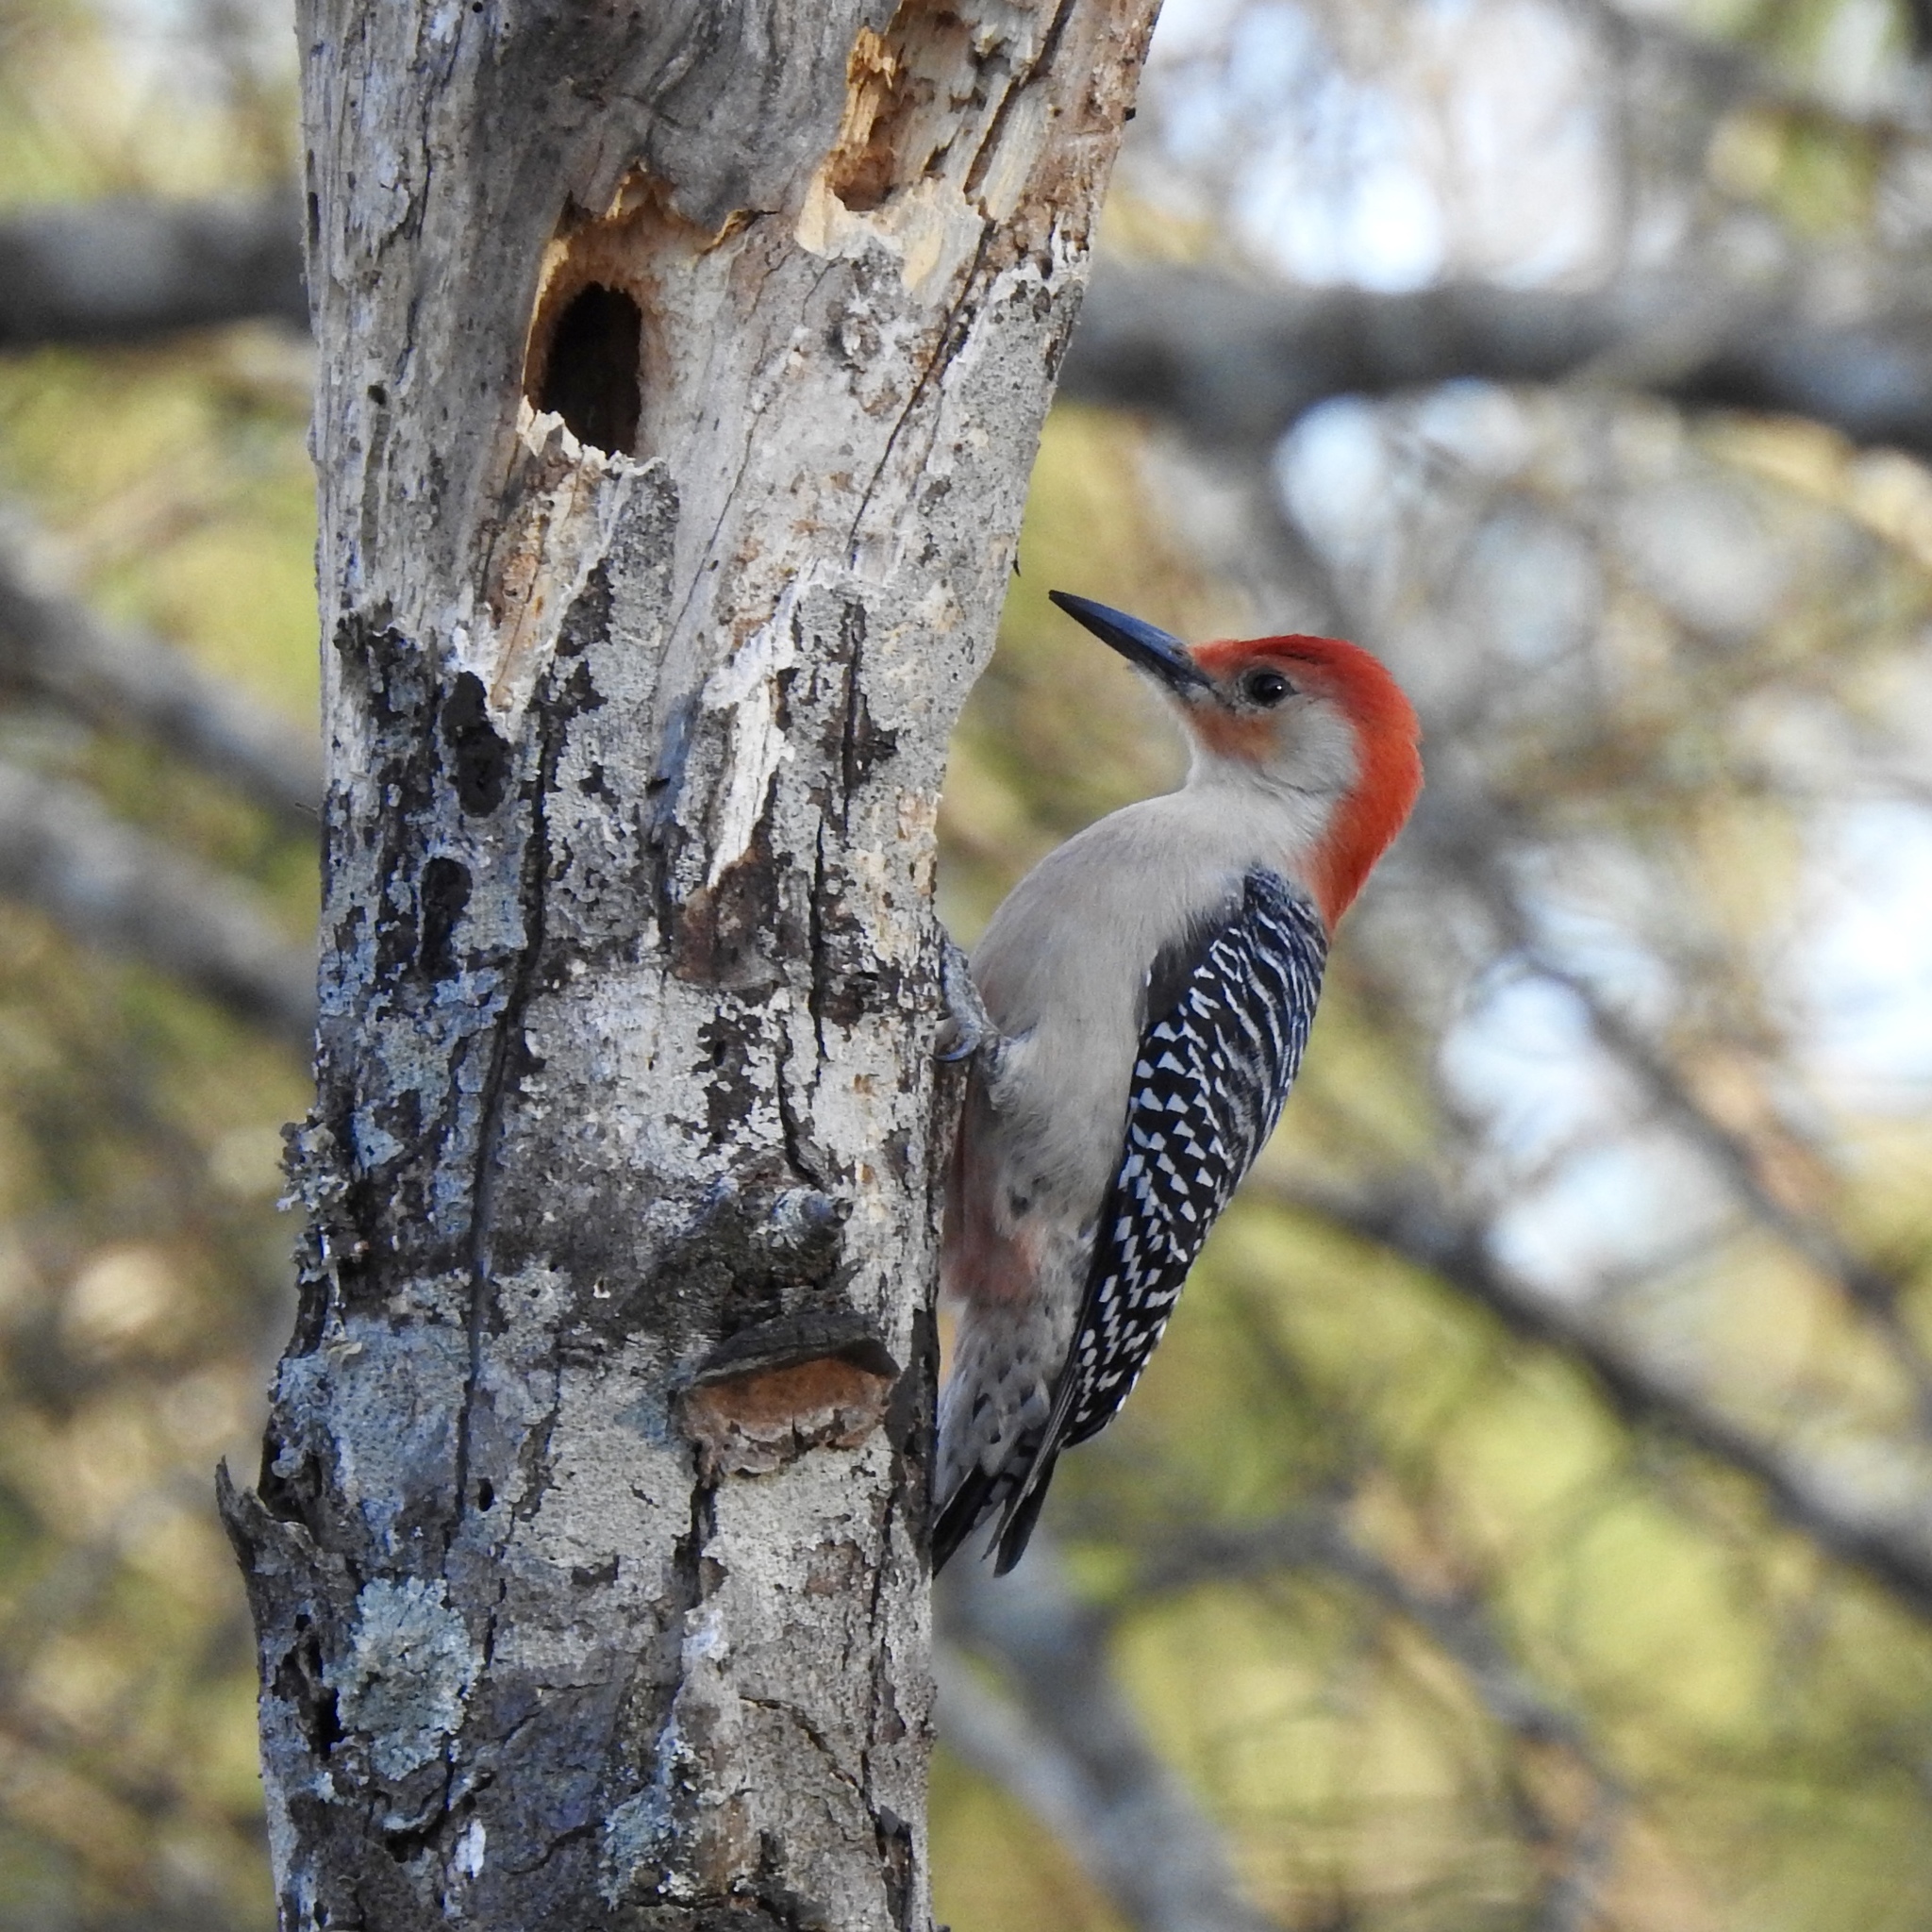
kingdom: Animalia
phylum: Chordata
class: Aves
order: Piciformes
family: Picidae
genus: Melanerpes
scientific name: Melanerpes carolinus
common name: Red-bellied woodpecker
